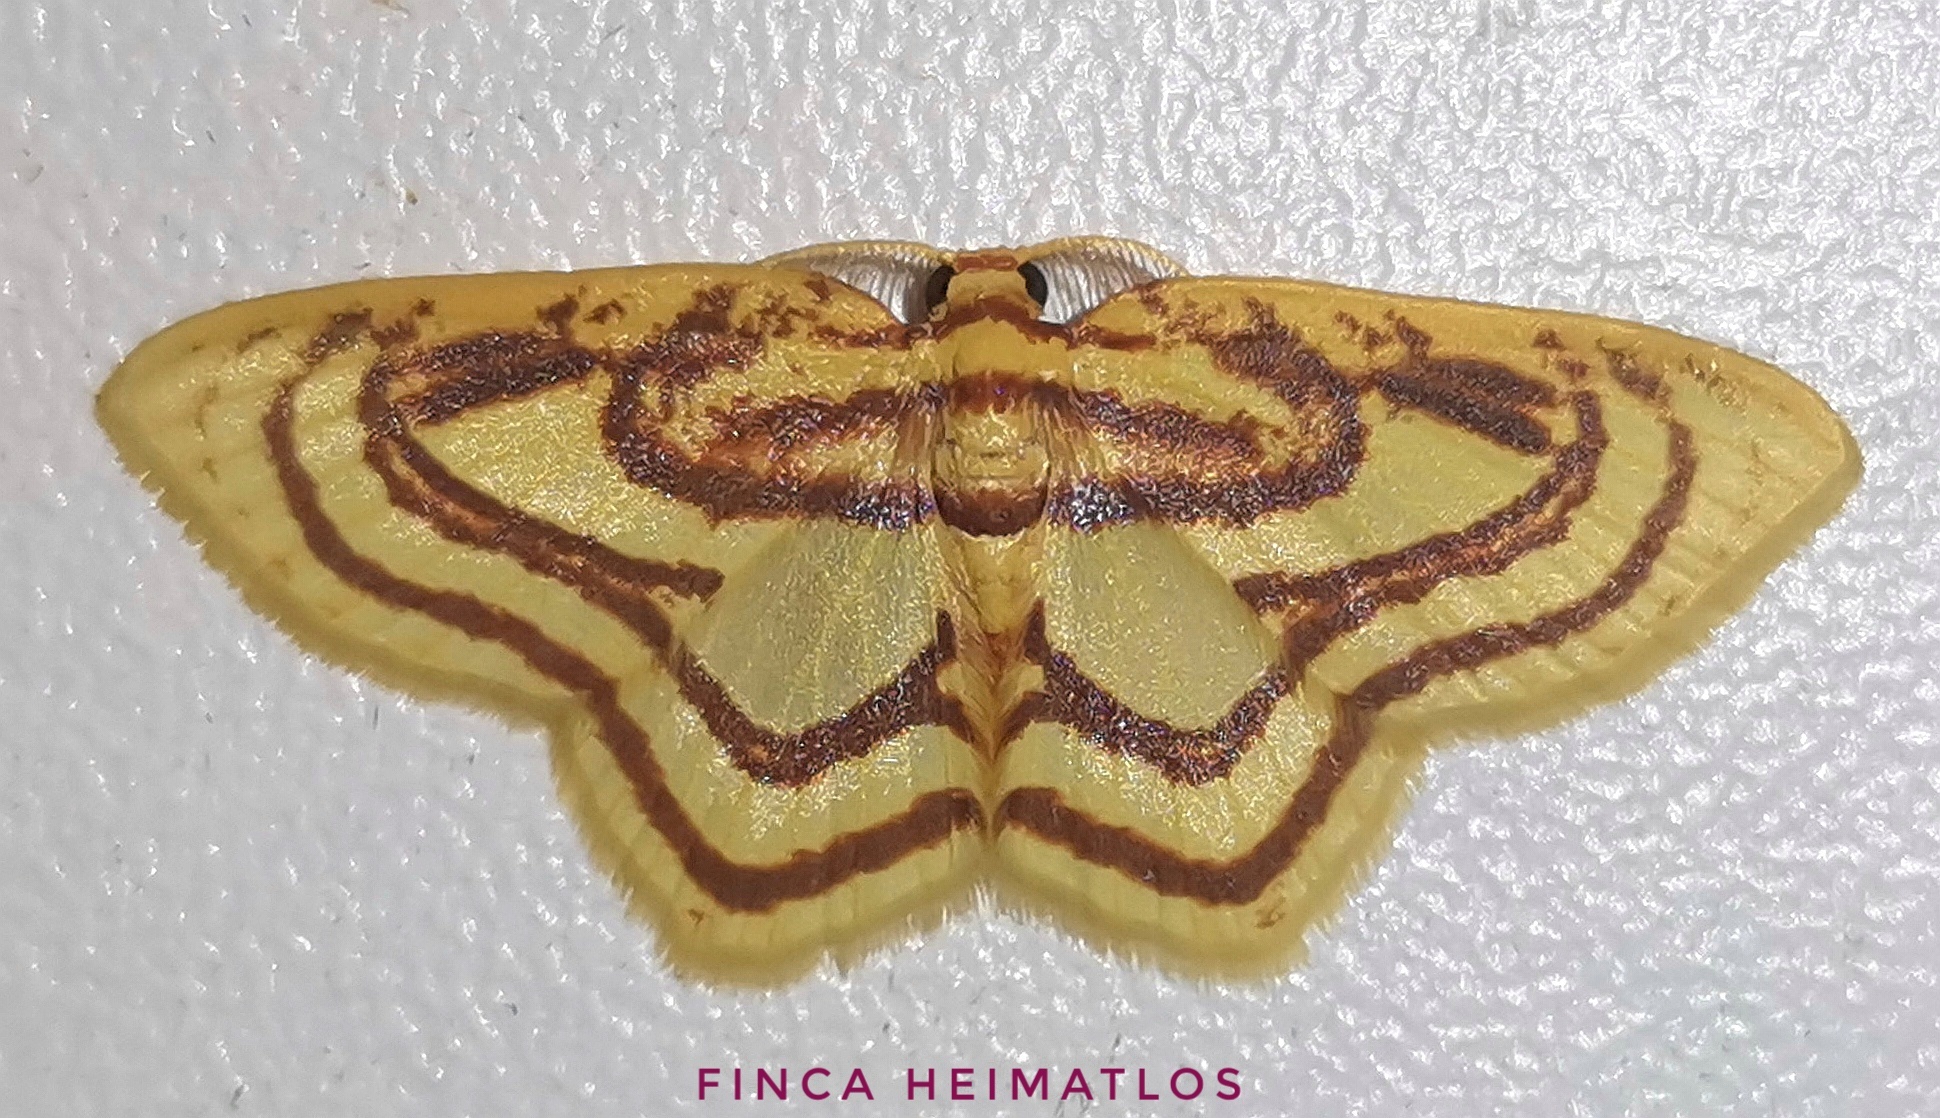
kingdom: Animalia
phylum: Arthropoda
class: Insecta
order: Lepidoptera
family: Geometridae
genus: Eois
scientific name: Eois isographata
